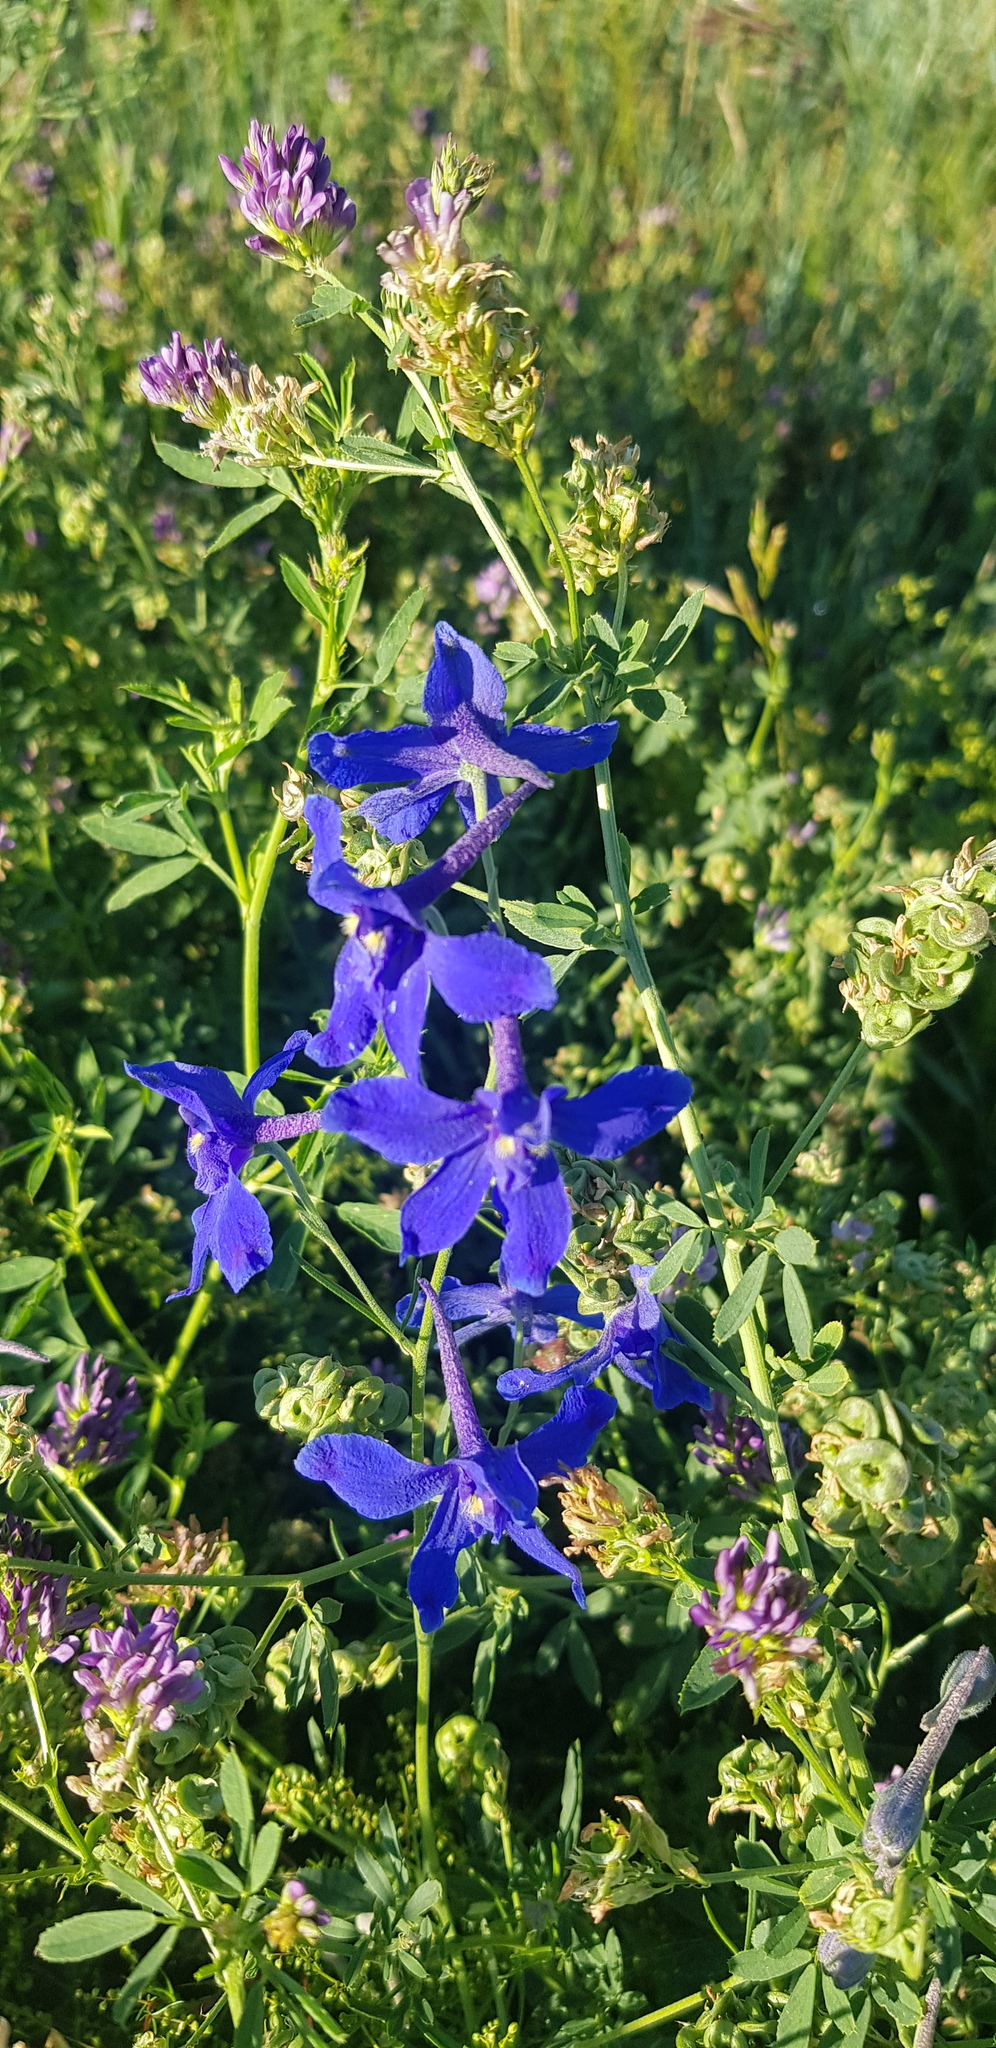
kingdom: Plantae
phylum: Tracheophyta
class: Magnoliopsida
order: Ranunculales
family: Ranunculaceae
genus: Delphinium
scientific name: Delphinium grandiflorum
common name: Siberian larkspur
